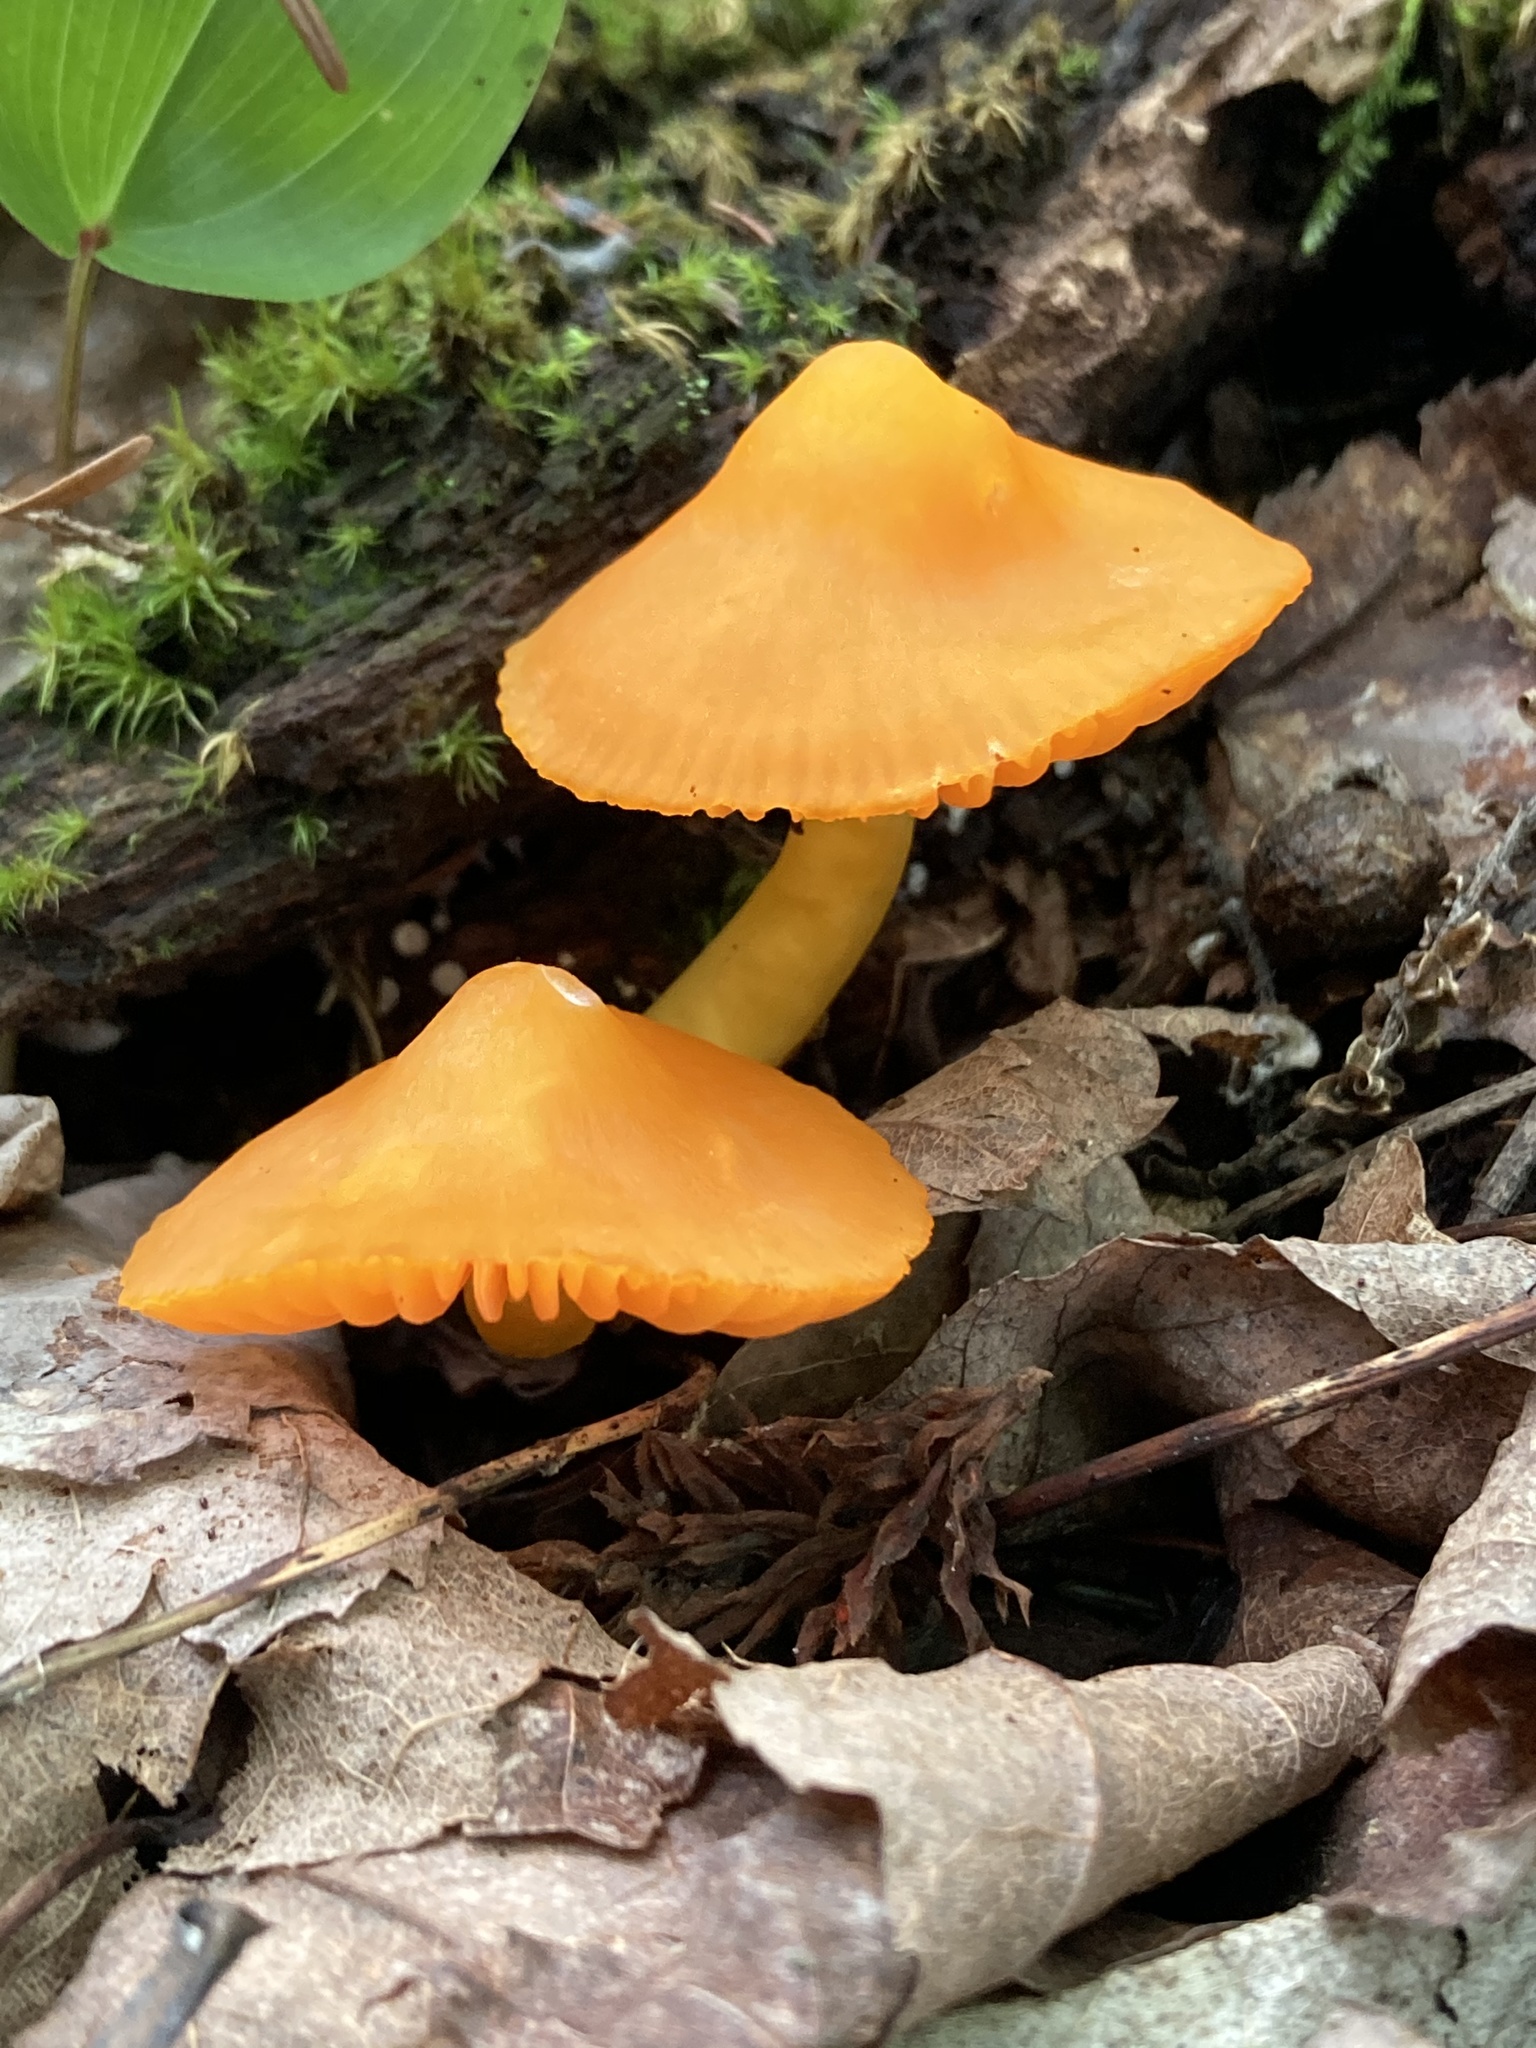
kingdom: Fungi
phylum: Basidiomycota
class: Agaricomycetes
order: Agaricales
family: Hygrophoraceae
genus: Humidicutis
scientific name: Humidicutis marginata
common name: Orange gilled waxcap
